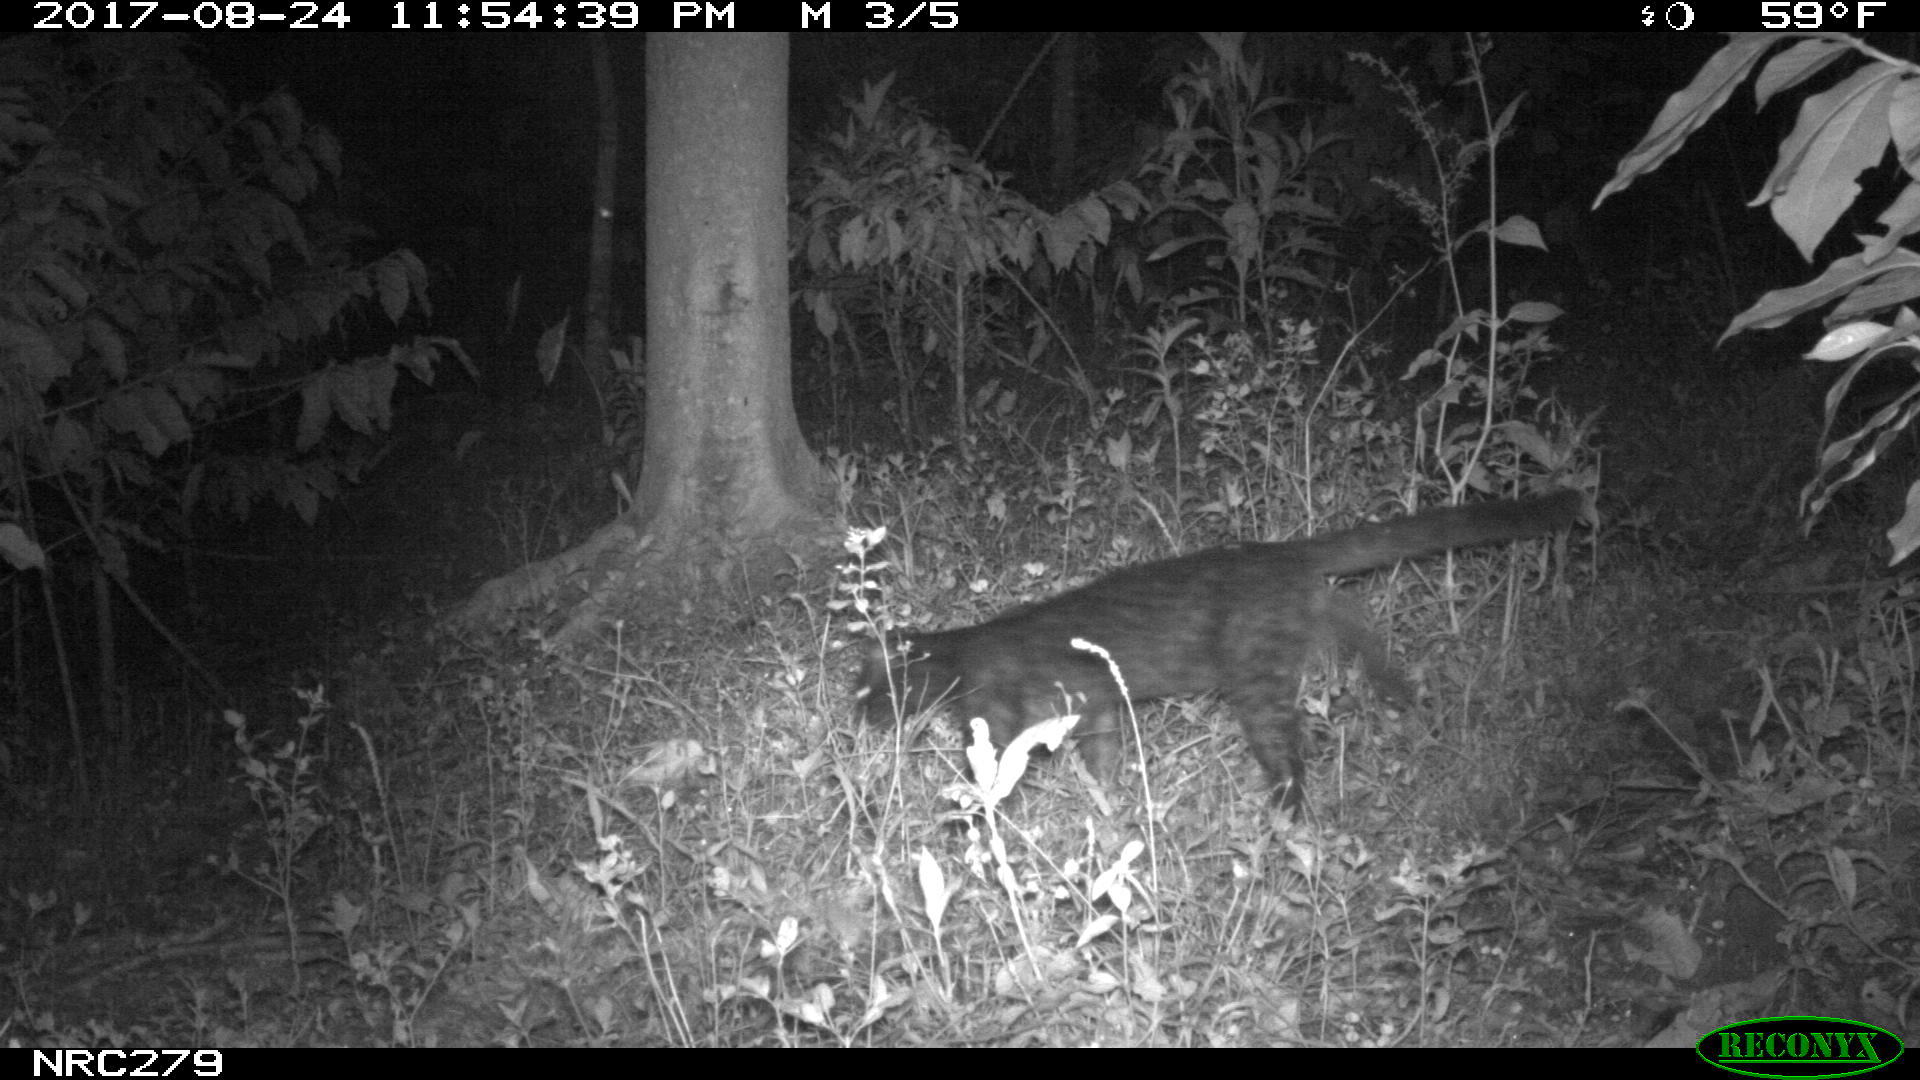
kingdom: Animalia
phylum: Chordata
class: Mammalia
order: Carnivora
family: Felidae
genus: Leopardus
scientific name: Leopardus tigrinus
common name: Oncilla
